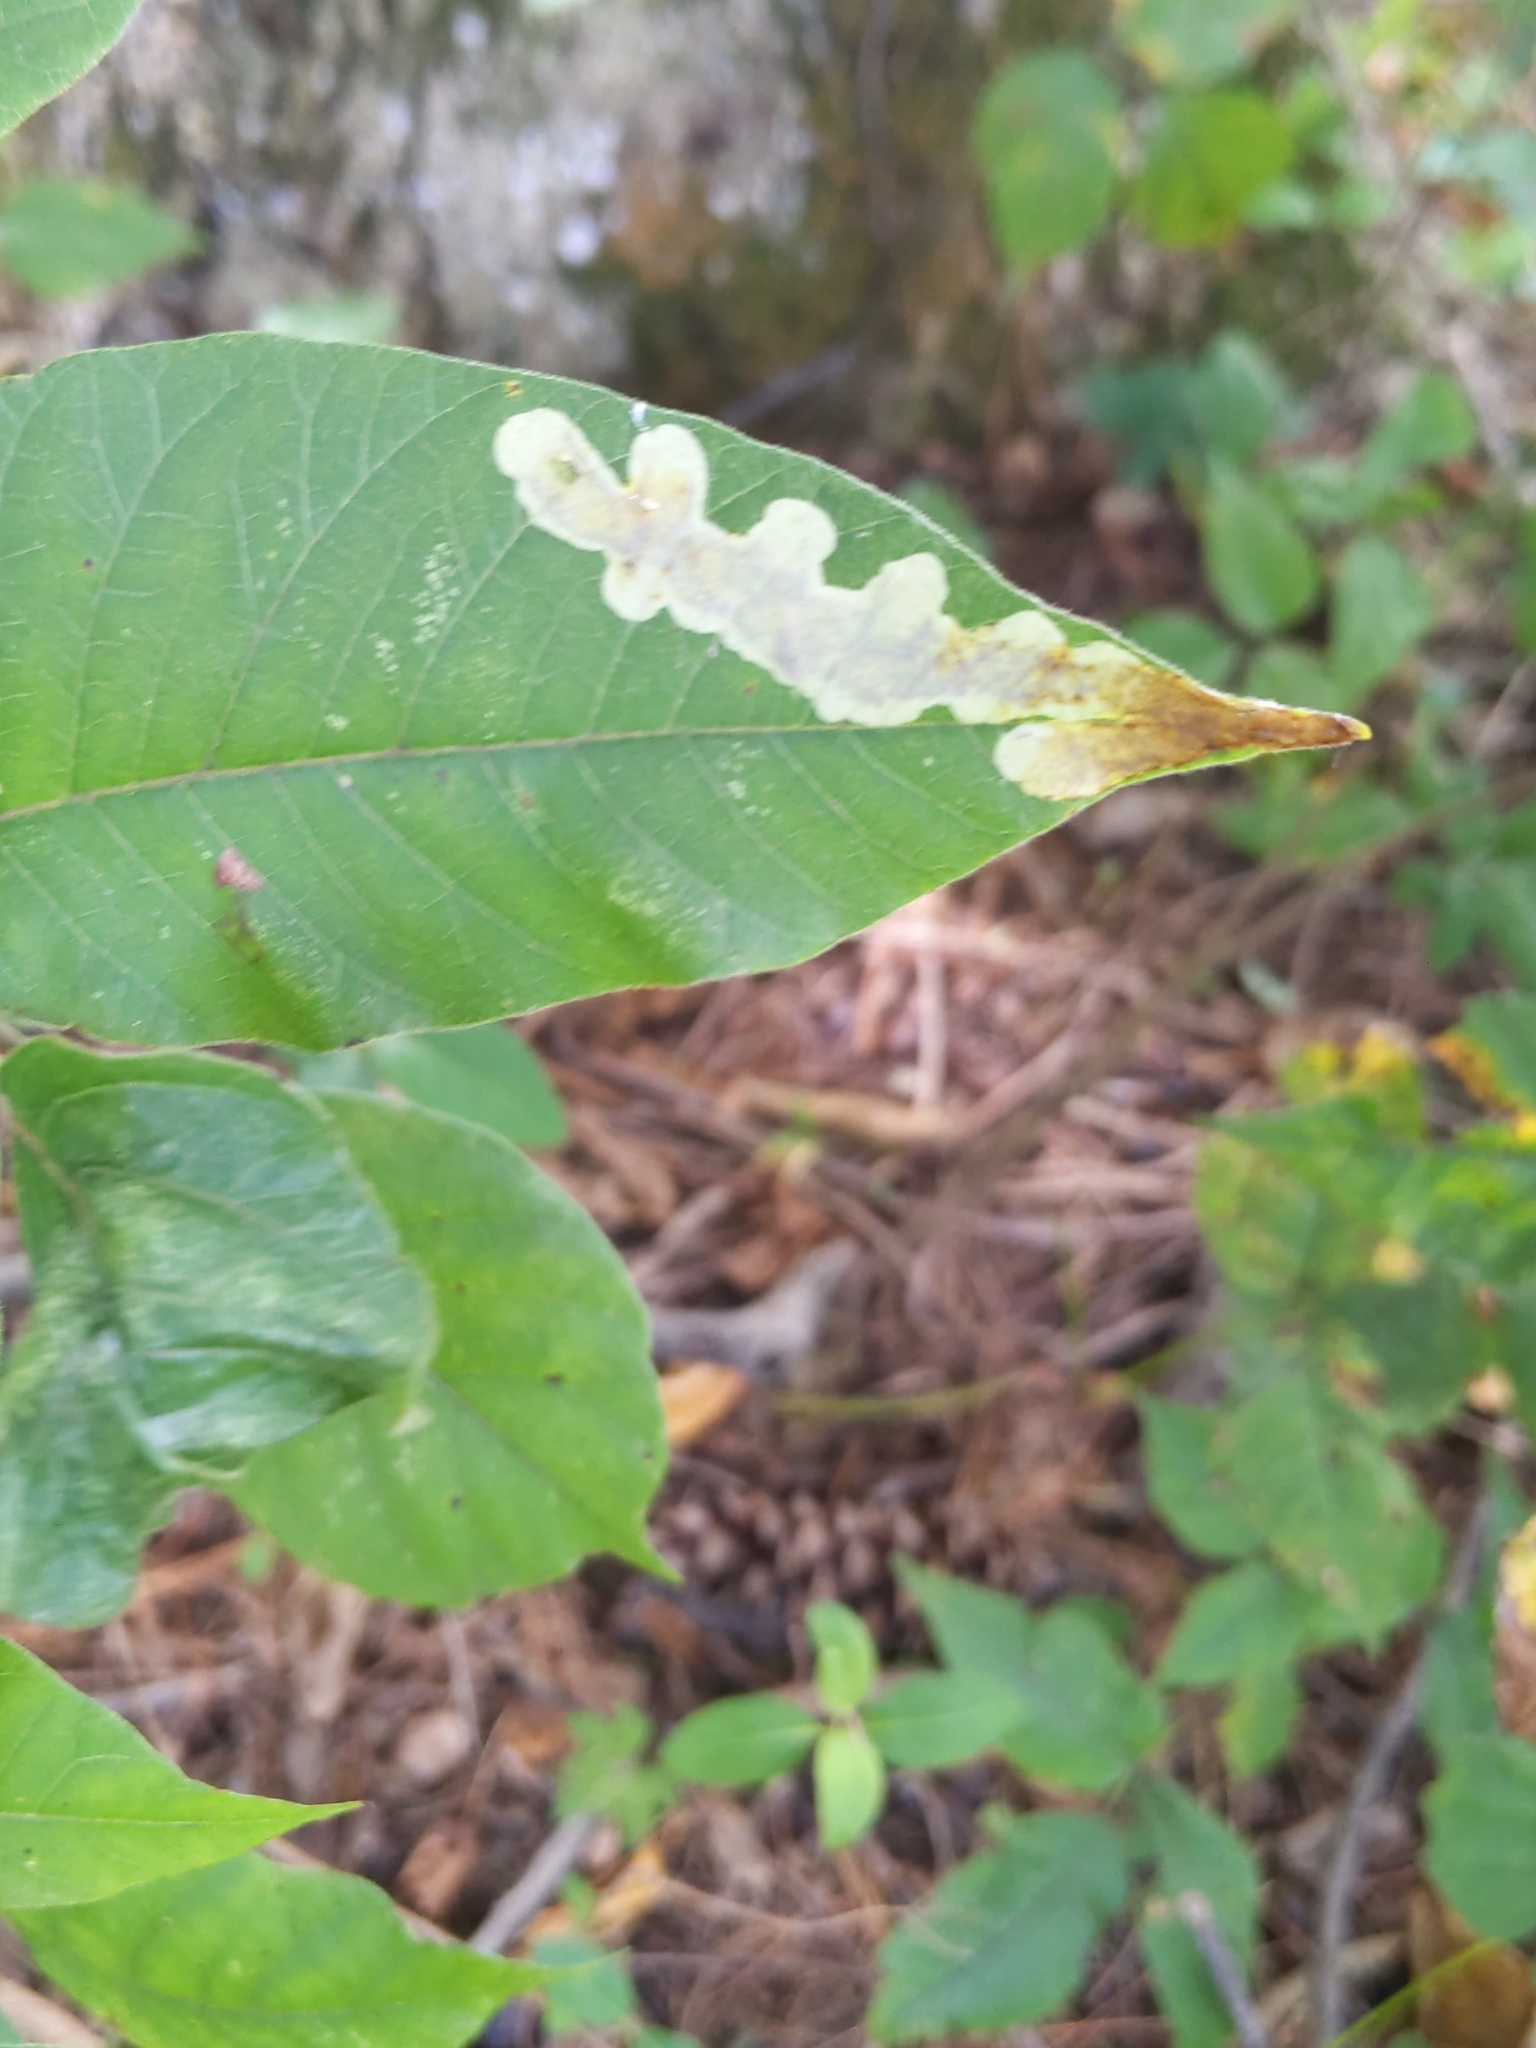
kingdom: Animalia
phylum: Arthropoda
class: Insecta
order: Lepidoptera
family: Gracillariidae
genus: Cameraria
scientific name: Cameraria guttifinitella
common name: Poison ivy leaf-miner moth
